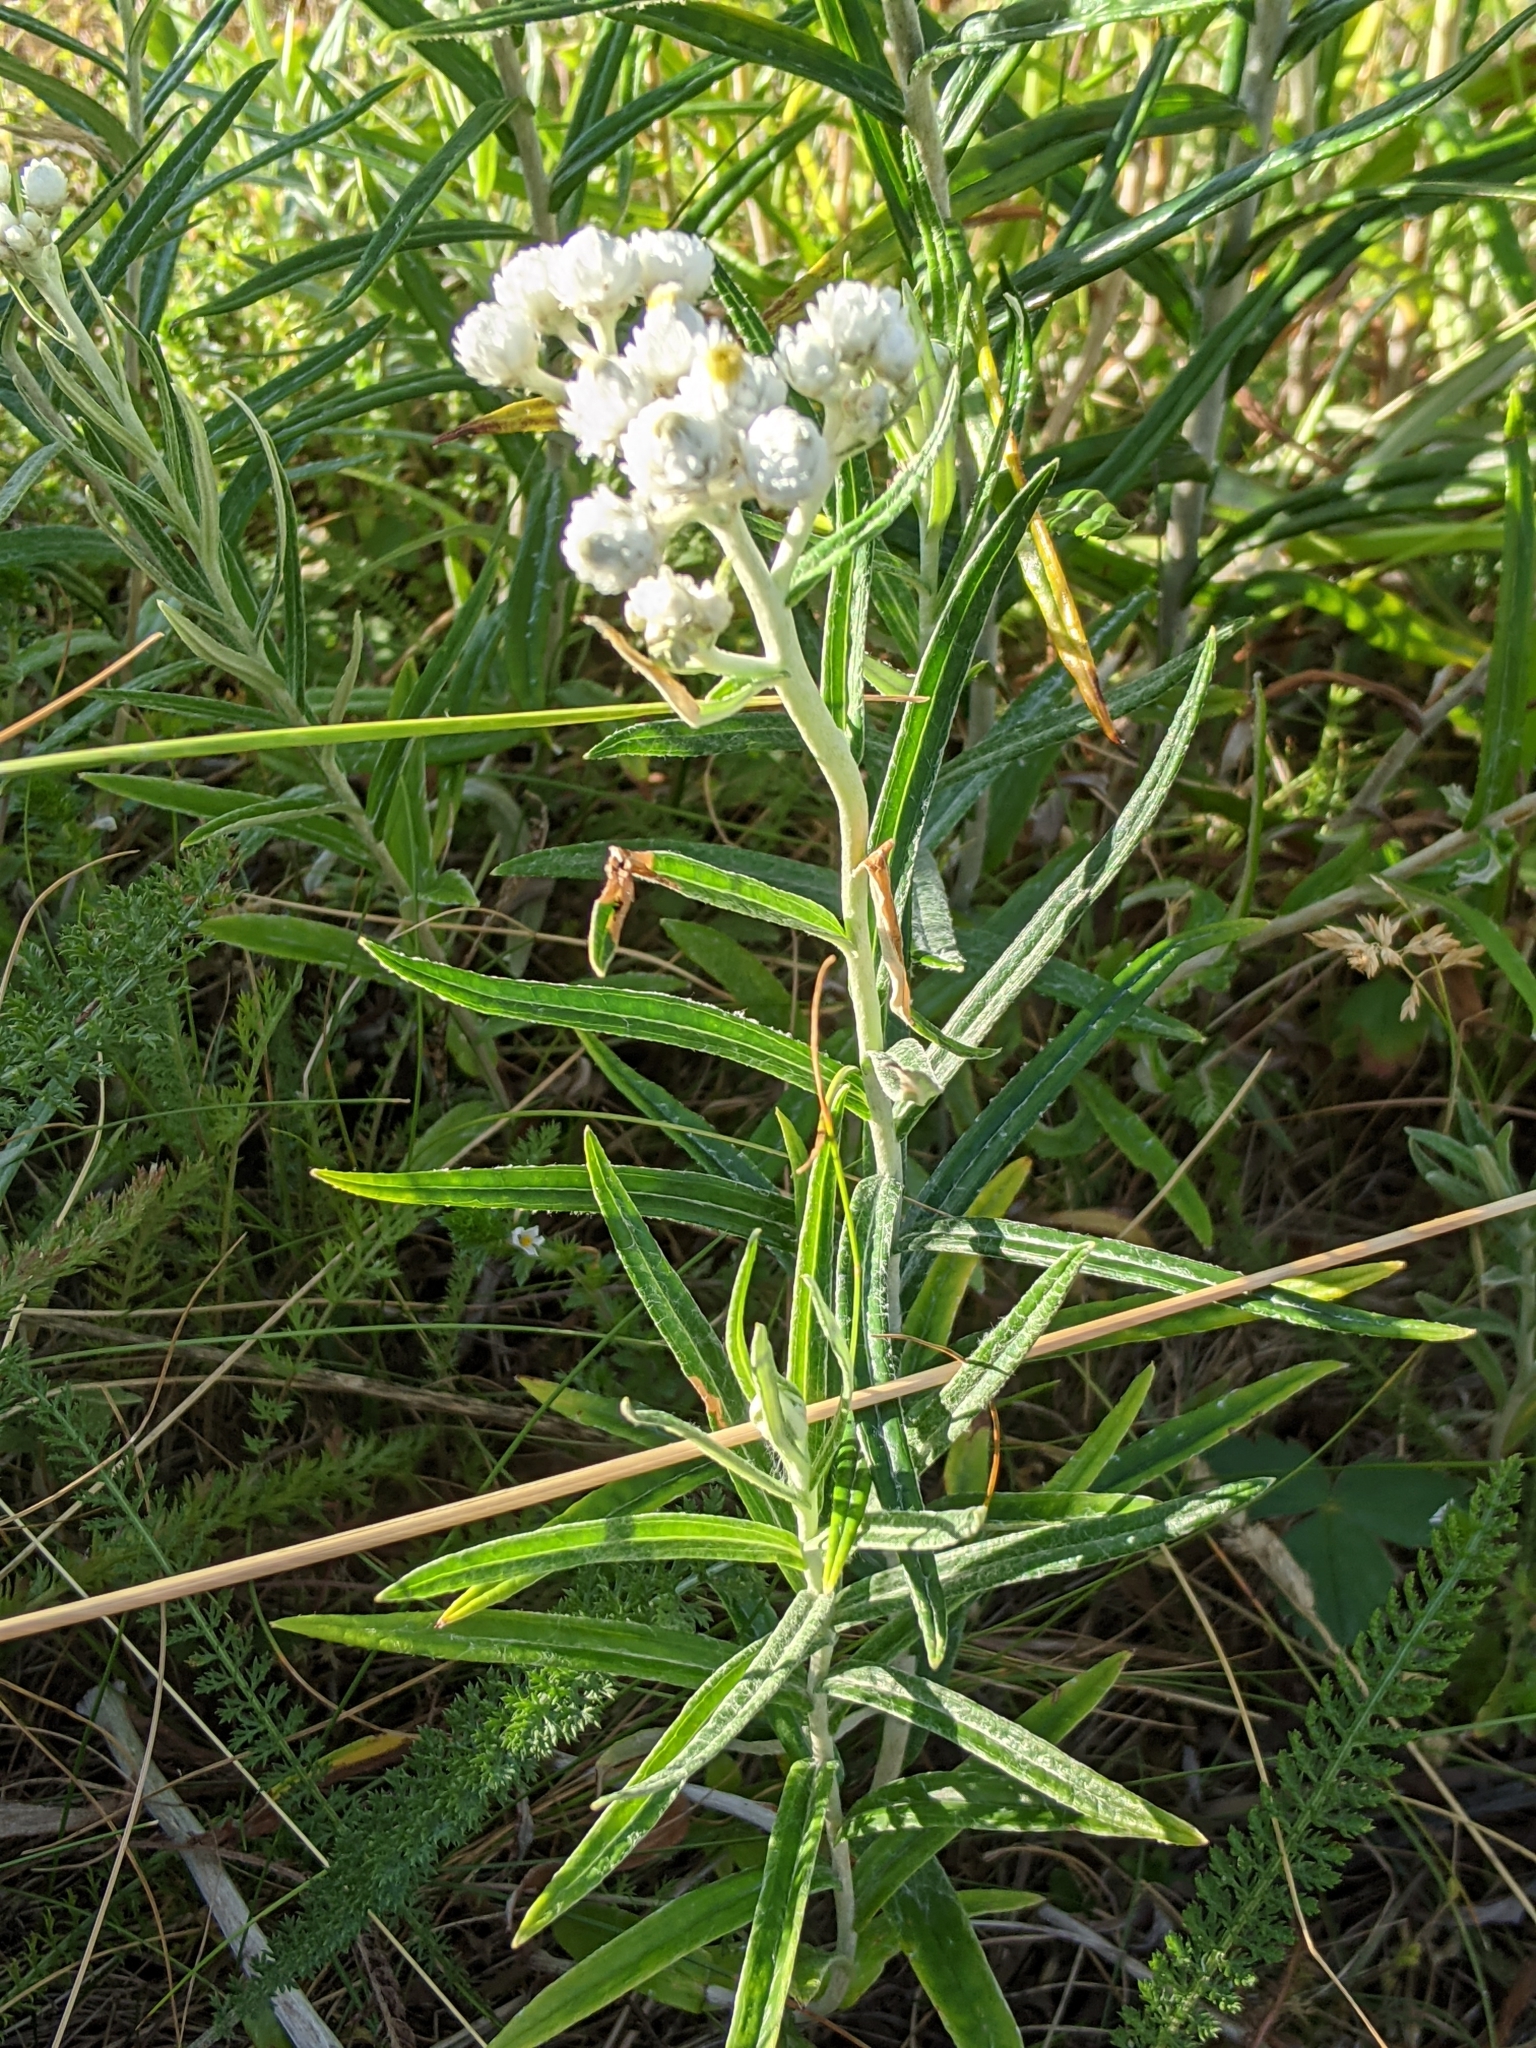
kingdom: Plantae
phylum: Tracheophyta
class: Magnoliopsida
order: Asterales
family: Asteraceae
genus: Anaphalis
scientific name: Anaphalis margaritacea
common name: Pearly everlasting
